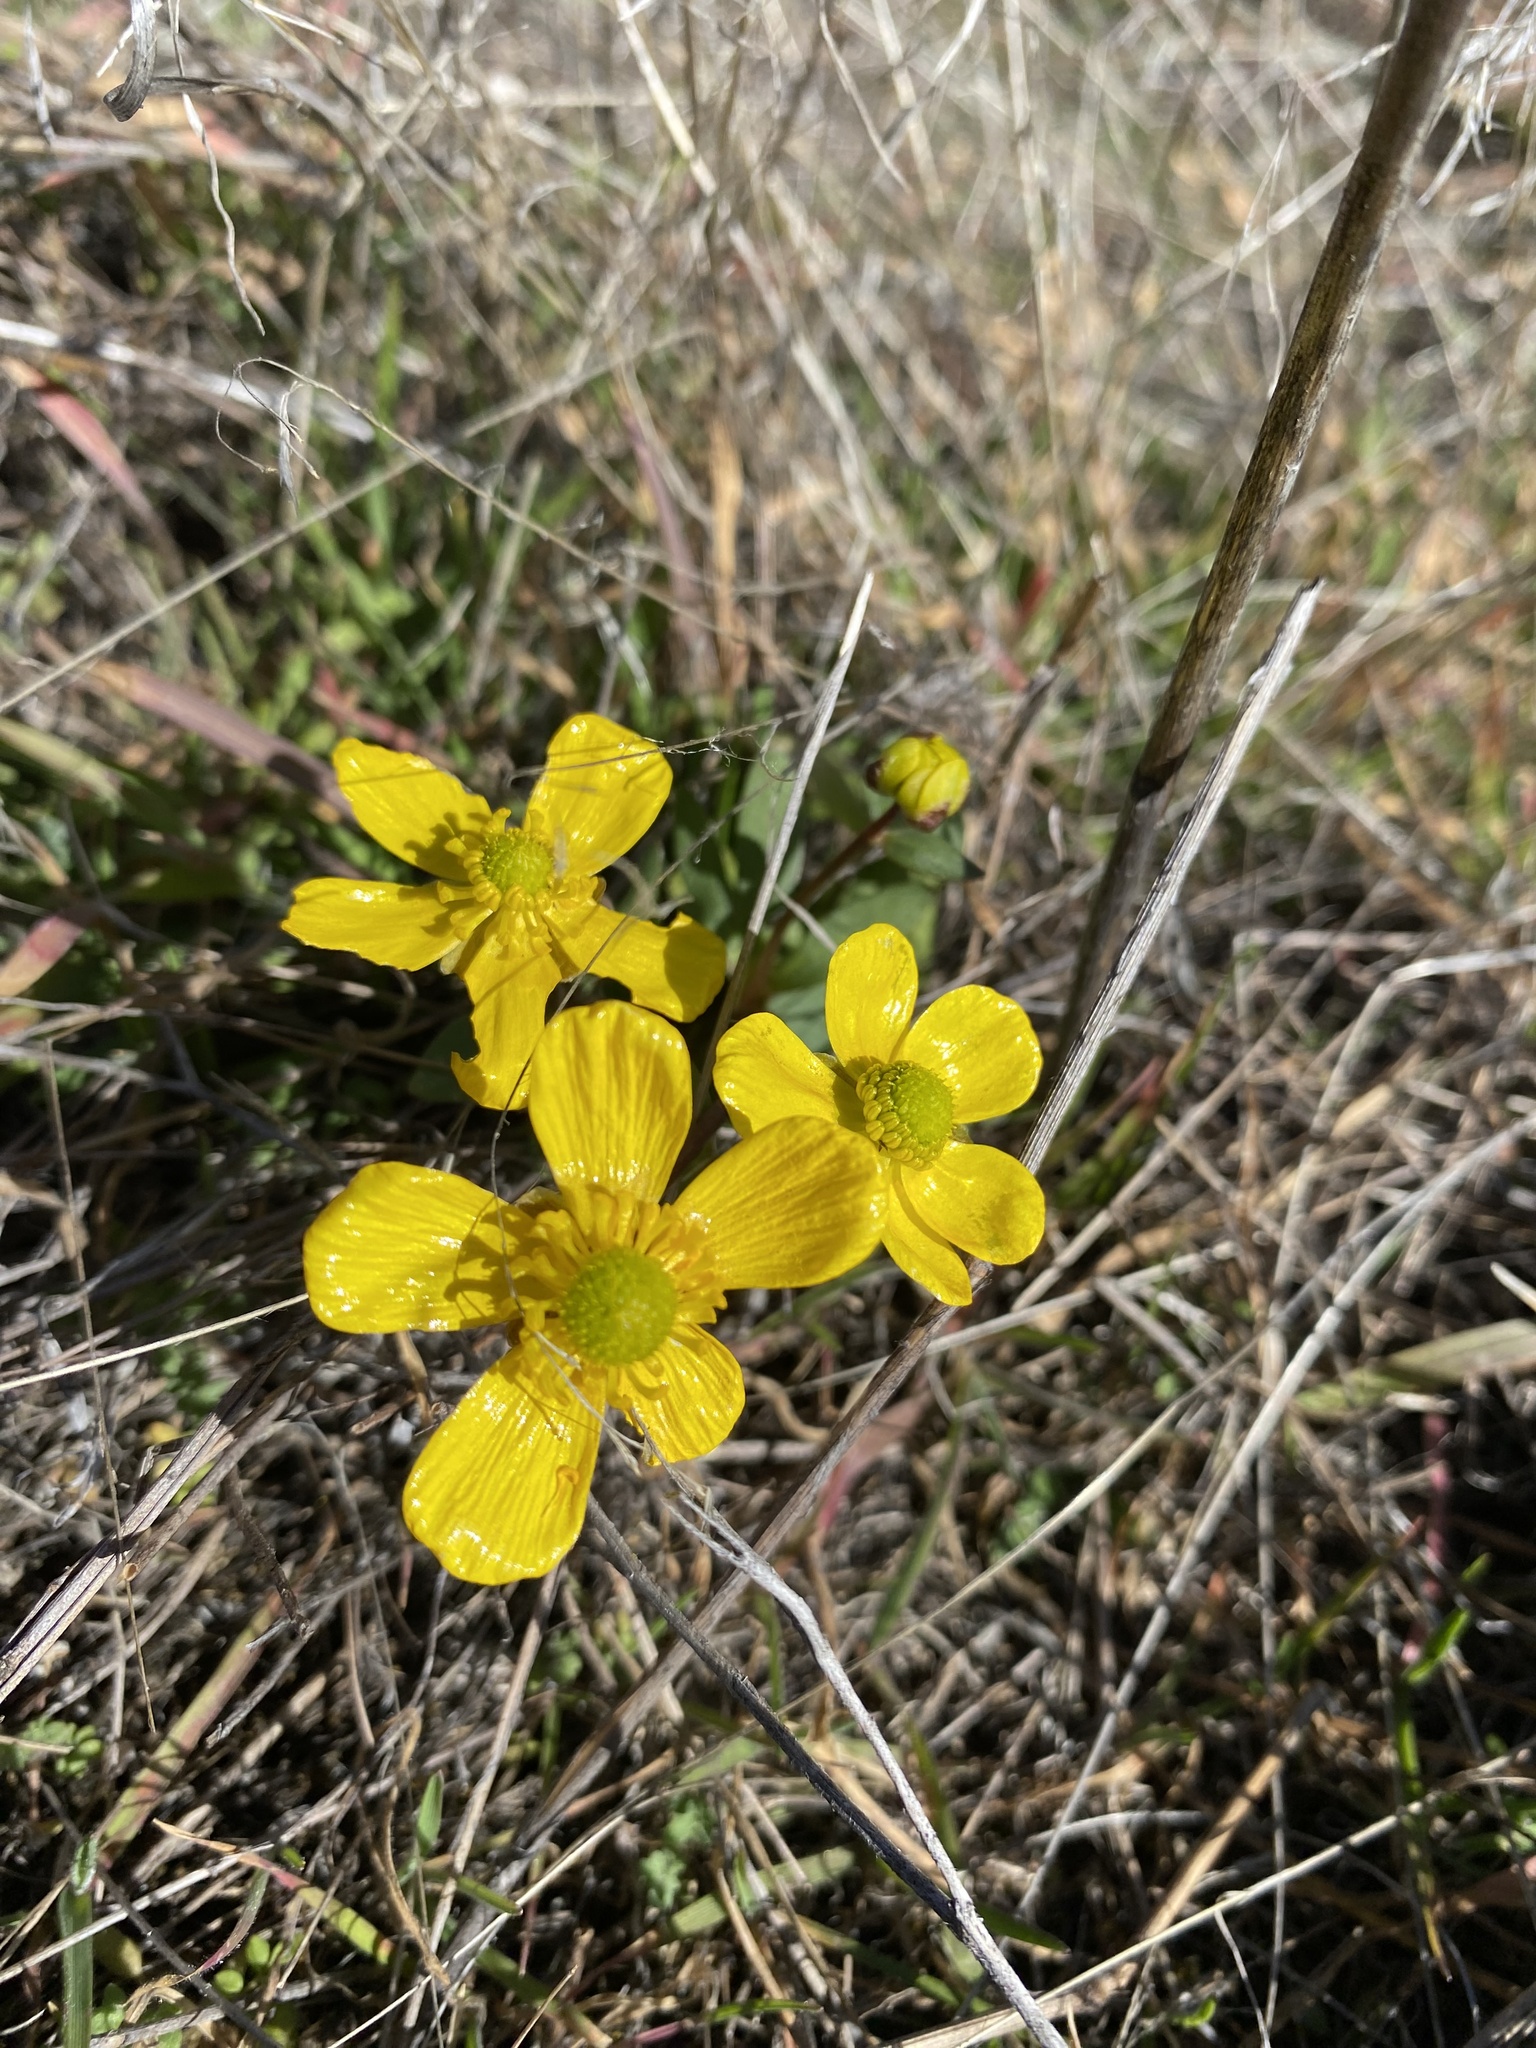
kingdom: Plantae
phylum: Tracheophyta
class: Magnoliopsida
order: Ranunculales
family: Ranunculaceae
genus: Ranunculus
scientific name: Ranunculus glaberrimus
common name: Sagebrush buttercup
